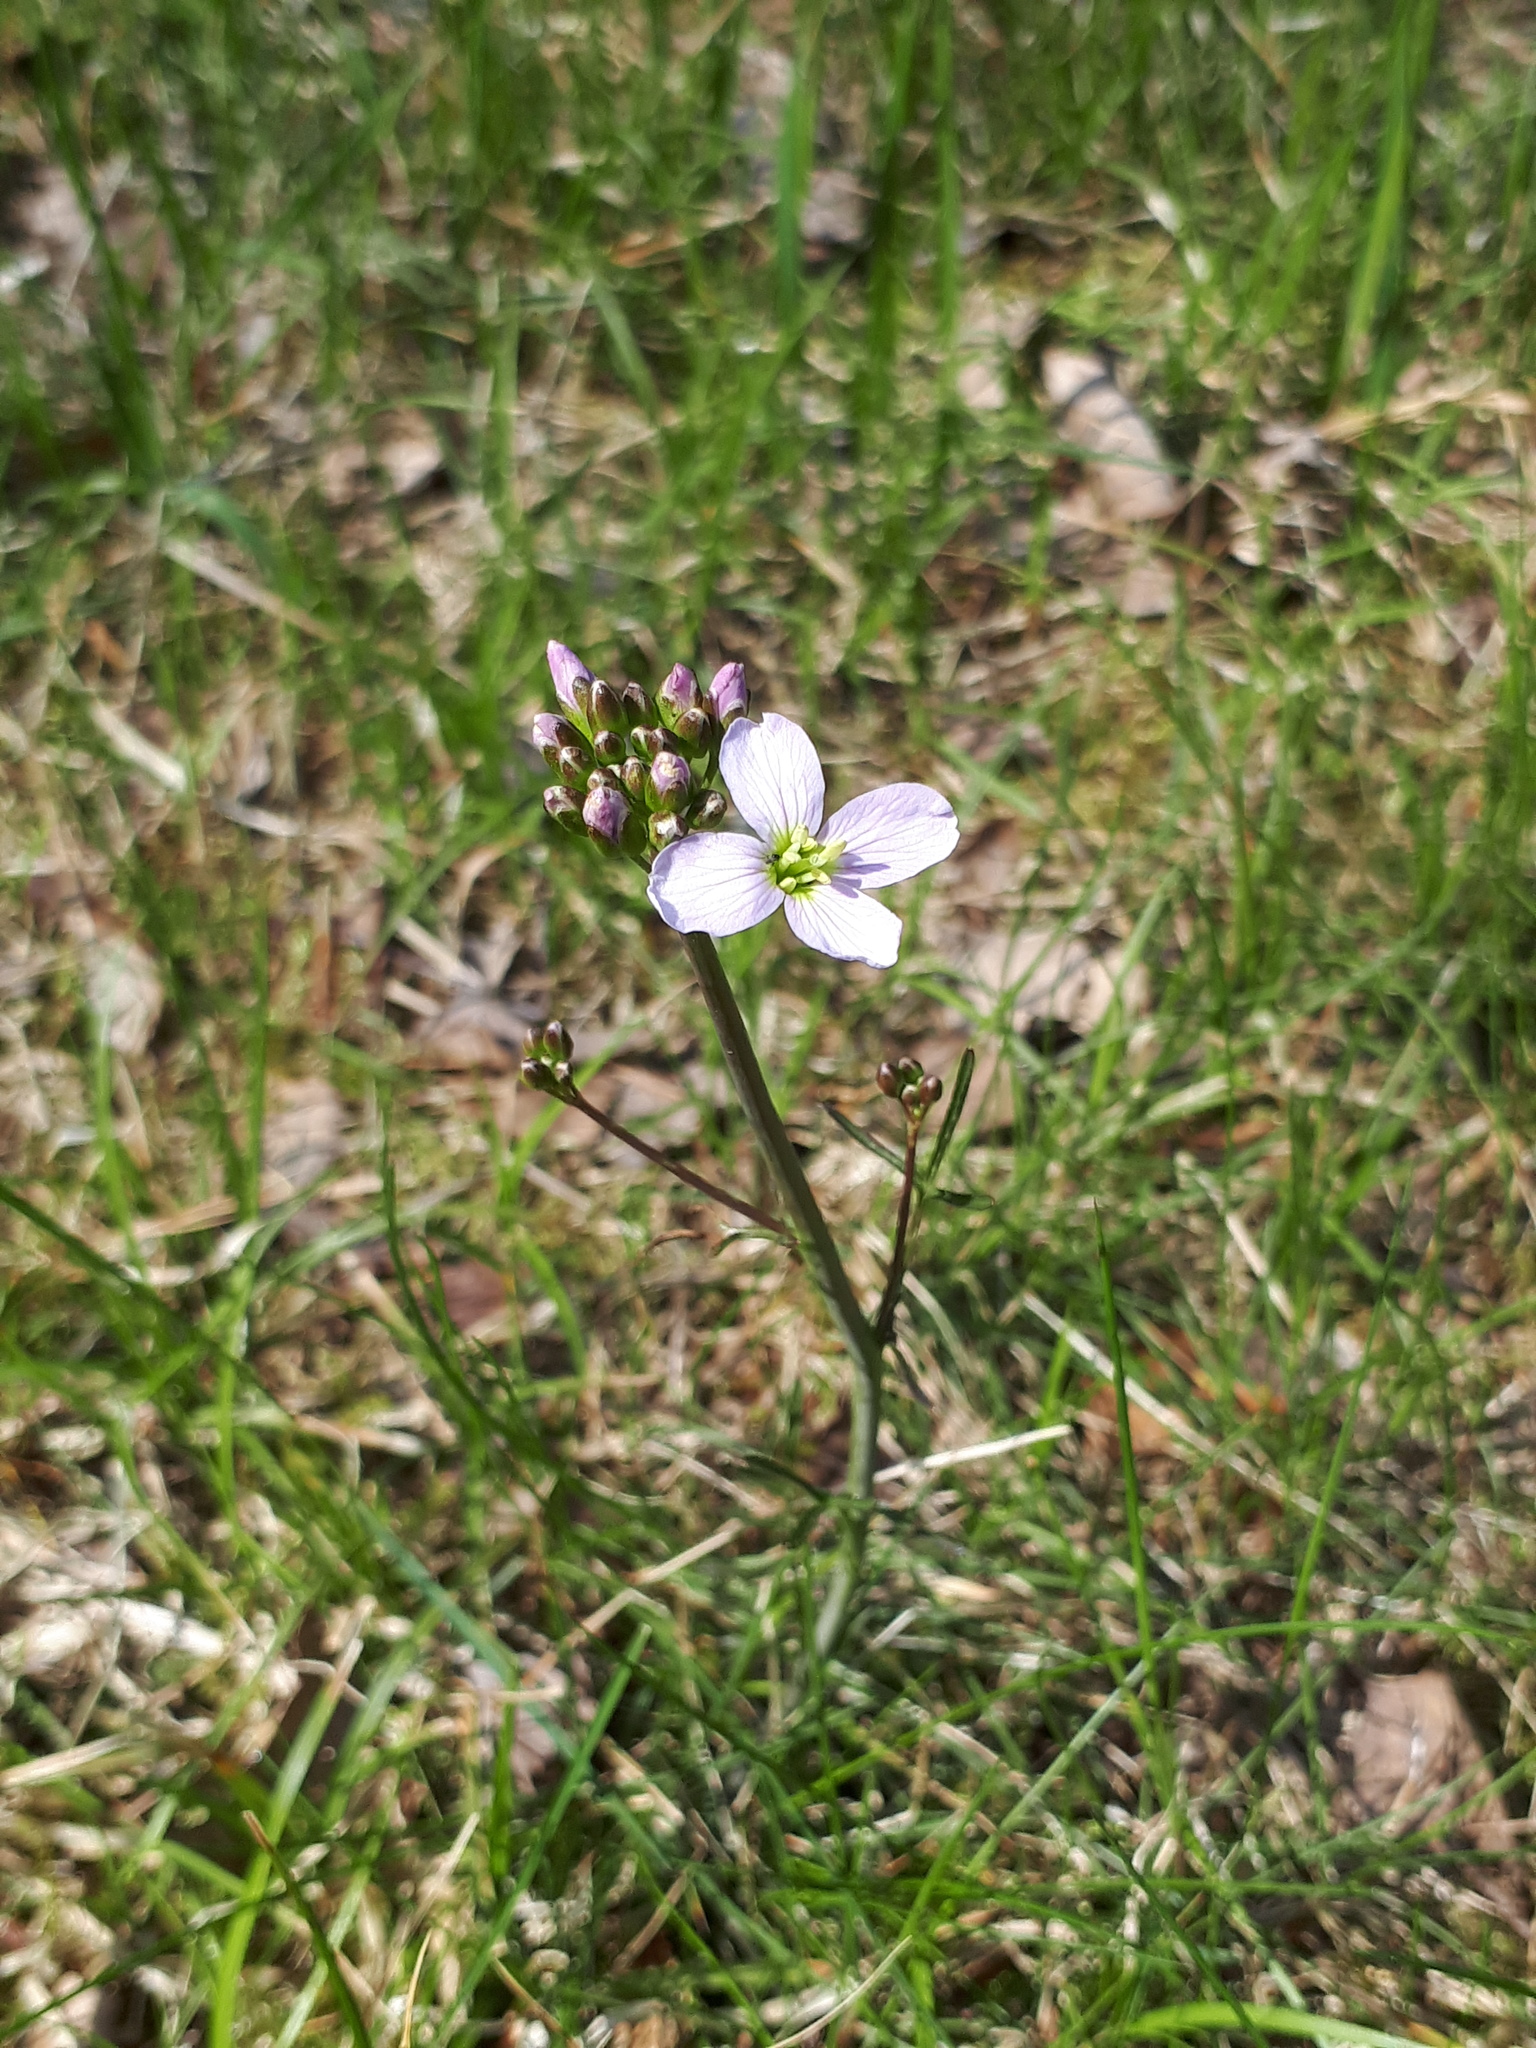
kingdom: Plantae
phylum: Tracheophyta
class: Magnoliopsida
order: Brassicales
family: Brassicaceae
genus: Cardamine
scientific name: Cardamine pratensis
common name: Cuckoo flower
